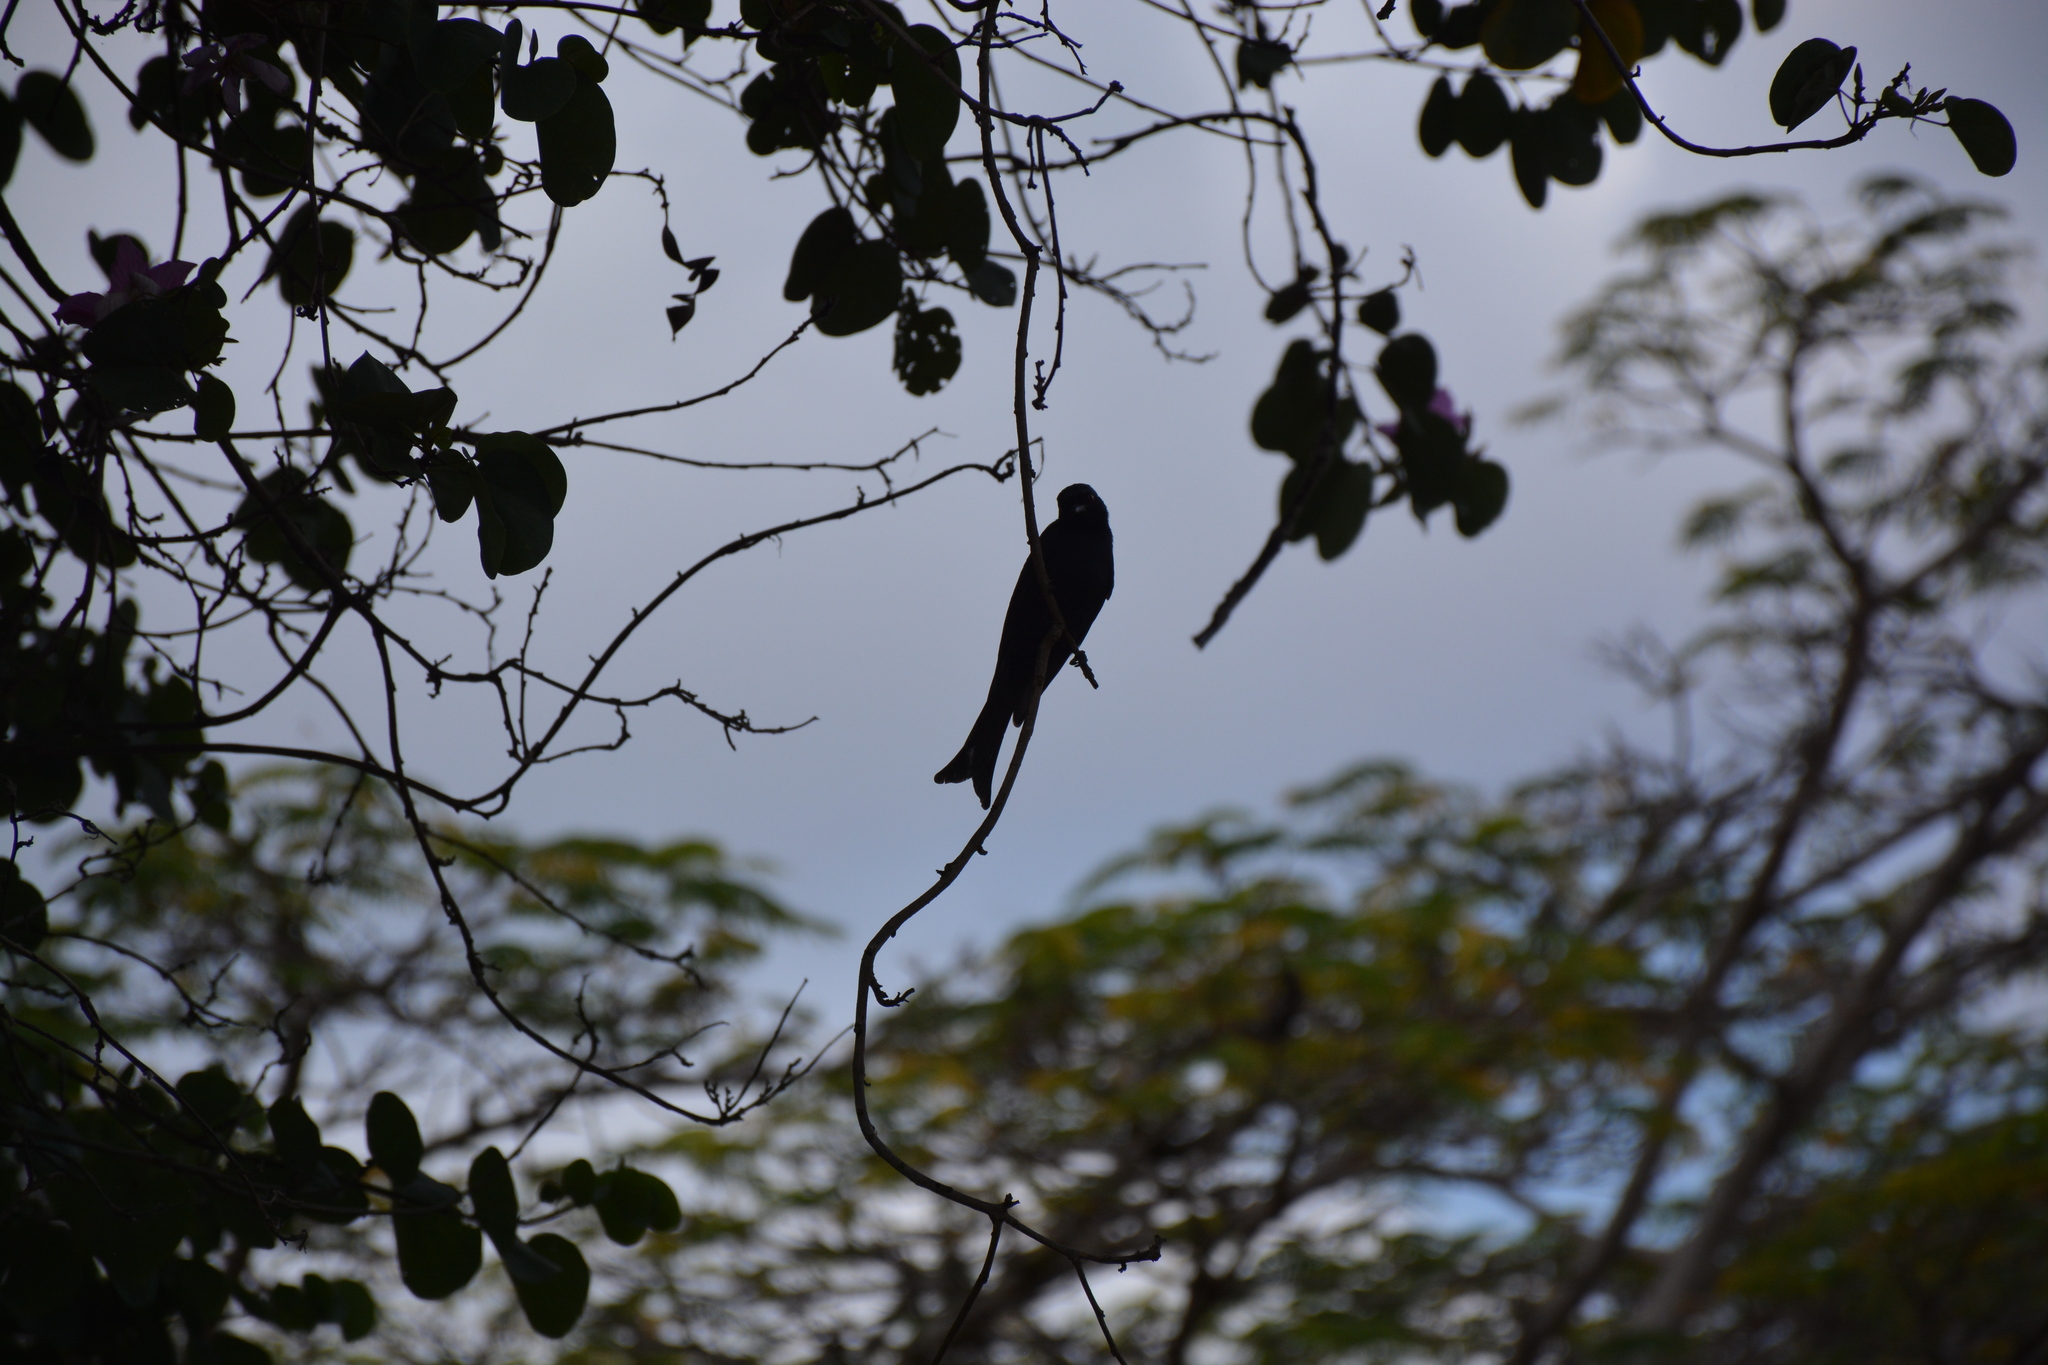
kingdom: Animalia
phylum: Chordata
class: Aves
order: Passeriformes
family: Dicruridae
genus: Dicrurus
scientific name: Dicrurus adsimilis
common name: Fork-tailed drongo
